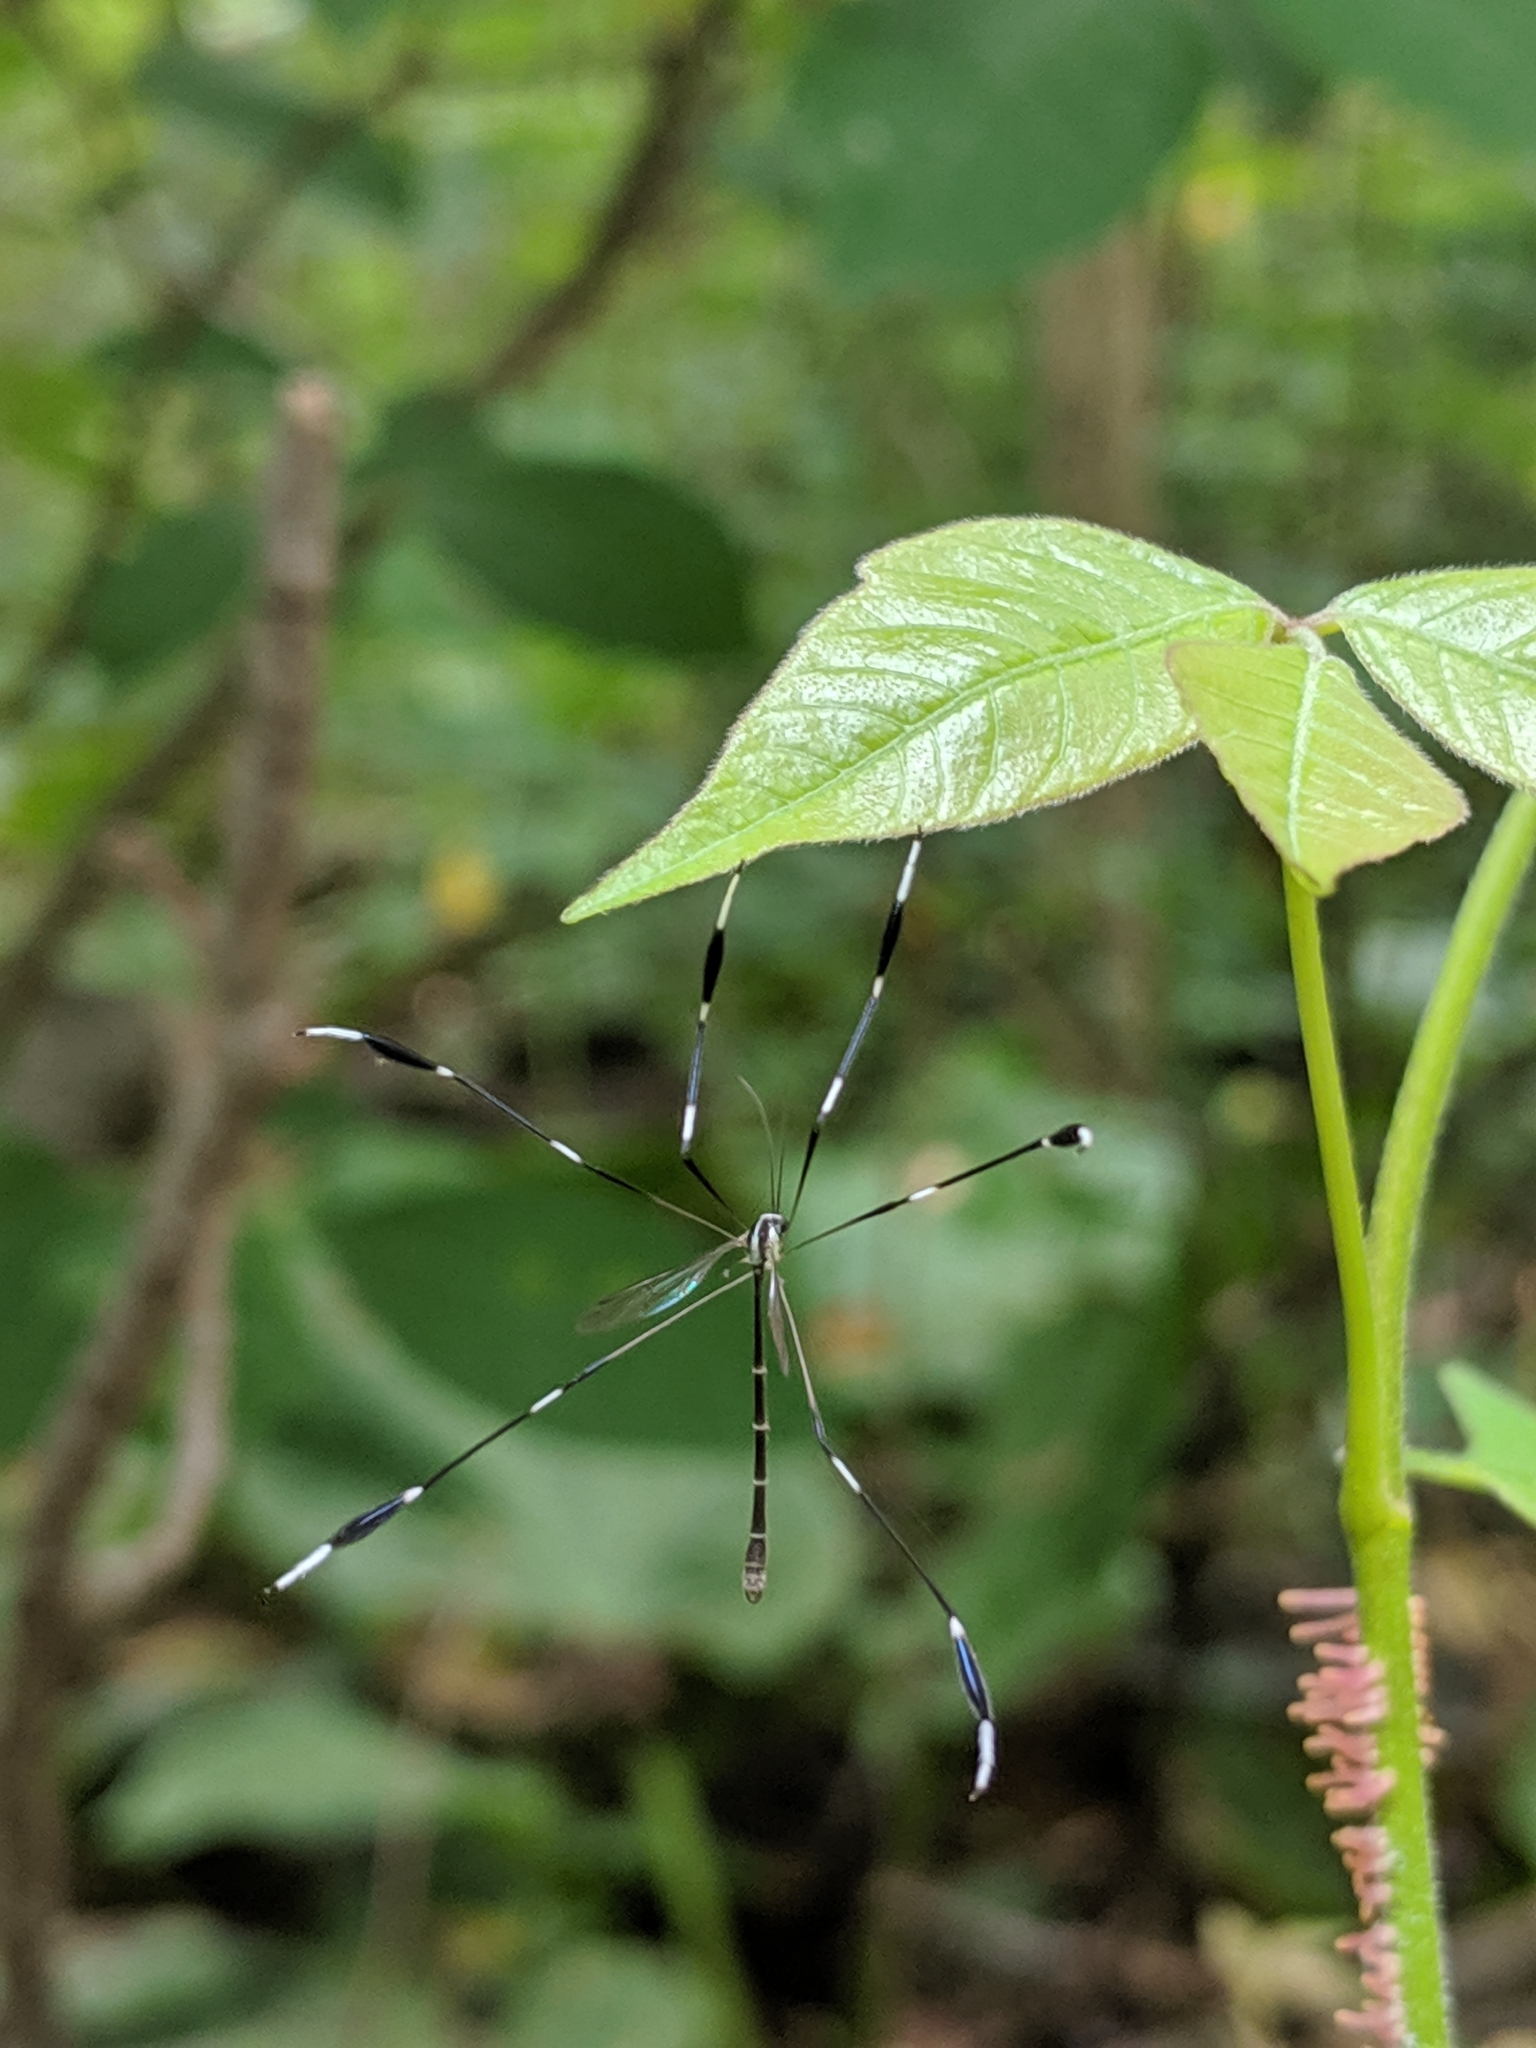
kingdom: Animalia
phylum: Arthropoda
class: Insecta
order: Diptera
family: Ptychopteridae
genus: Bittacomorpha
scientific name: Bittacomorpha clavipes
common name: Eastern phantom crane fly
